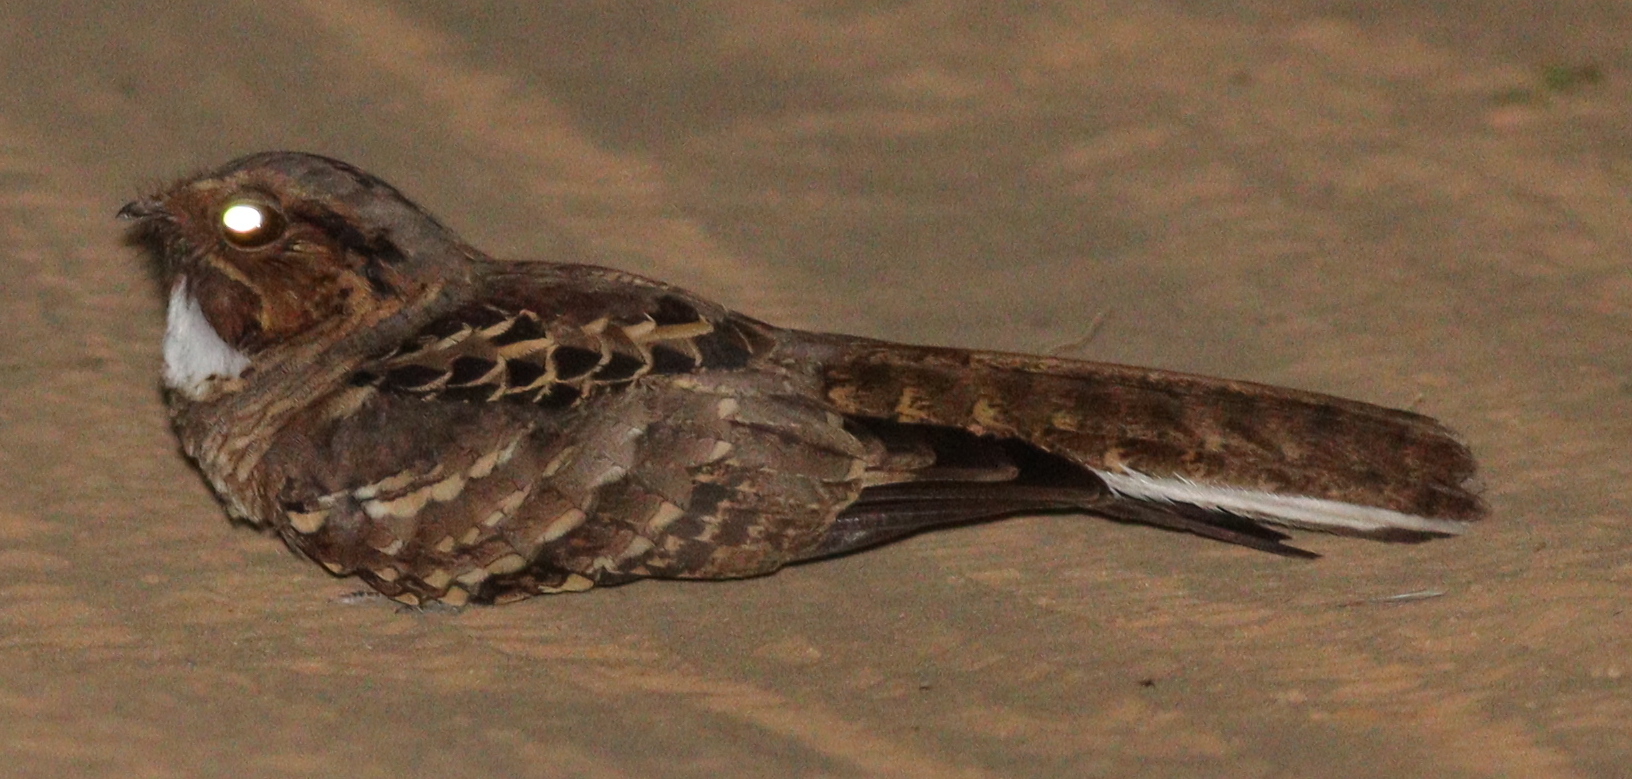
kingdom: Animalia
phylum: Chordata
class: Aves
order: Caprimulgiformes
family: Caprimulgidae
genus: Nyctidromus
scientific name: Nyctidromus albicollis
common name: Pauraque
